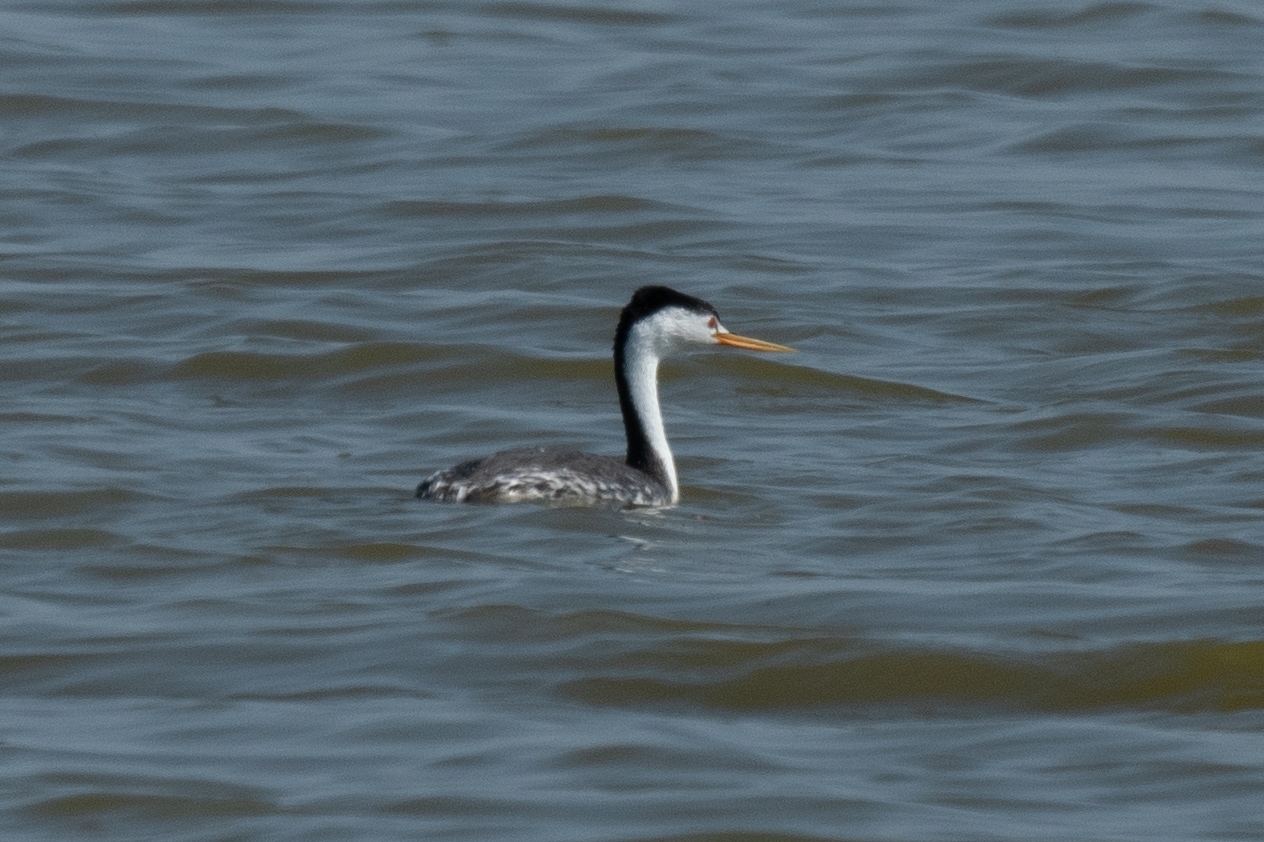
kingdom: Animalia
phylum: Chordata
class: Aves
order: Podicipediformes
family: Podicipedidae
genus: Aechmophorus
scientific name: Aechmophorus clarkii
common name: Clark's grebe
